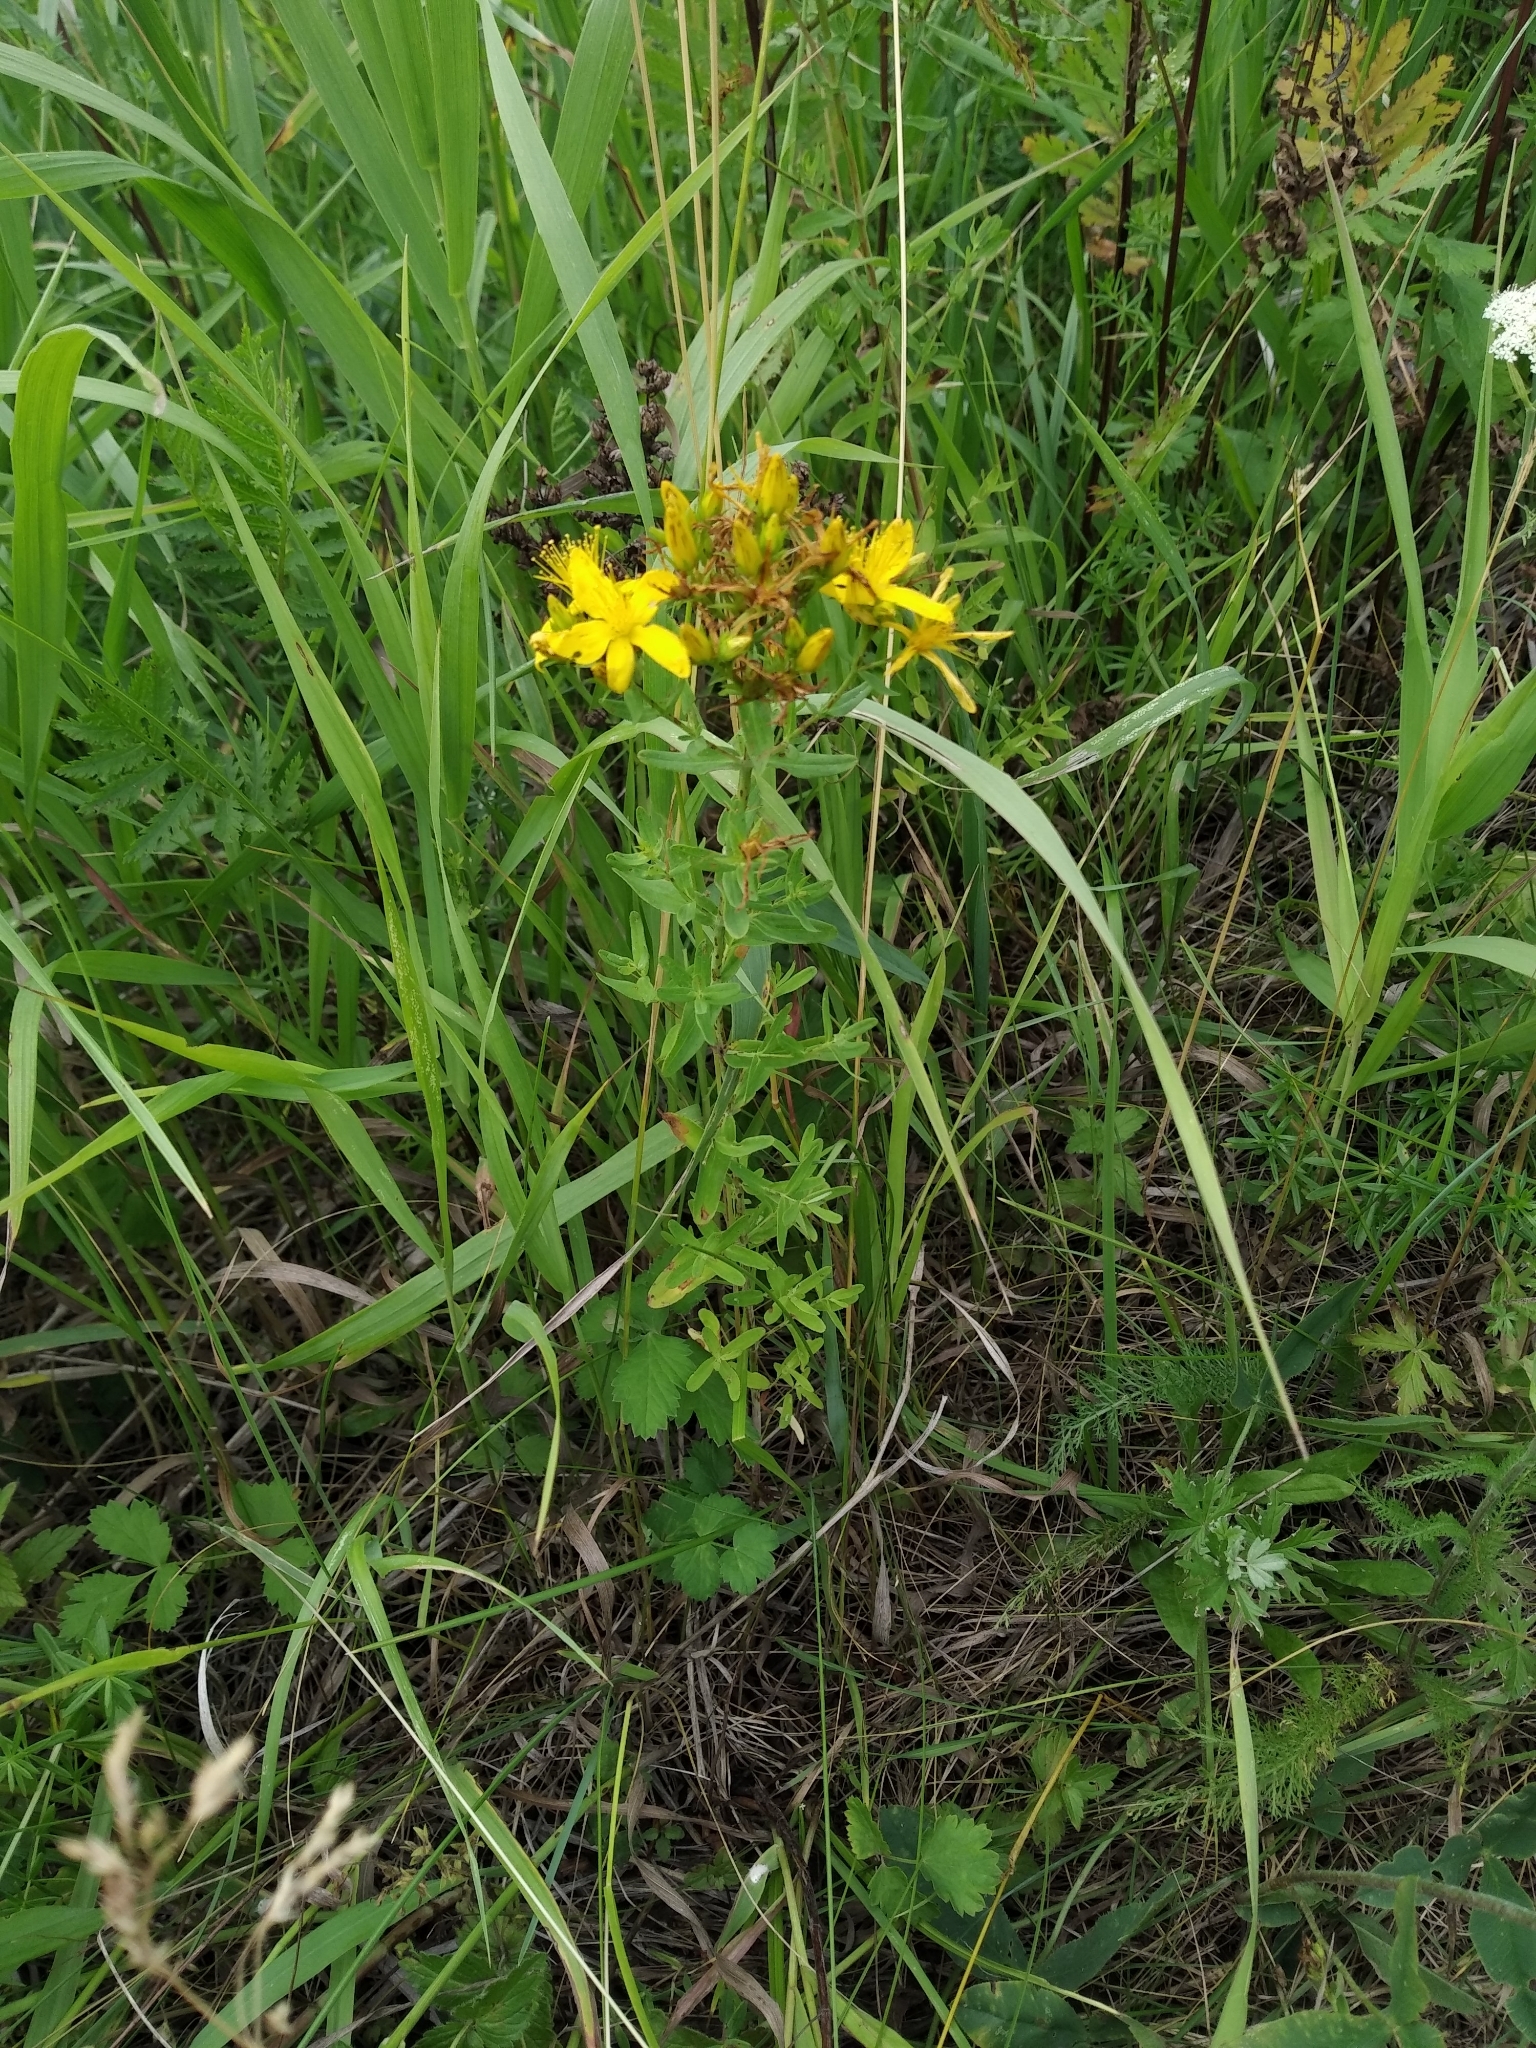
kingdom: Plantae
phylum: Tracheophyta
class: Magnoliopsida
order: Malpighiales
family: Hypericaceae
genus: Hypericum
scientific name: Hypericum perforatum
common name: Common st. johnswort
